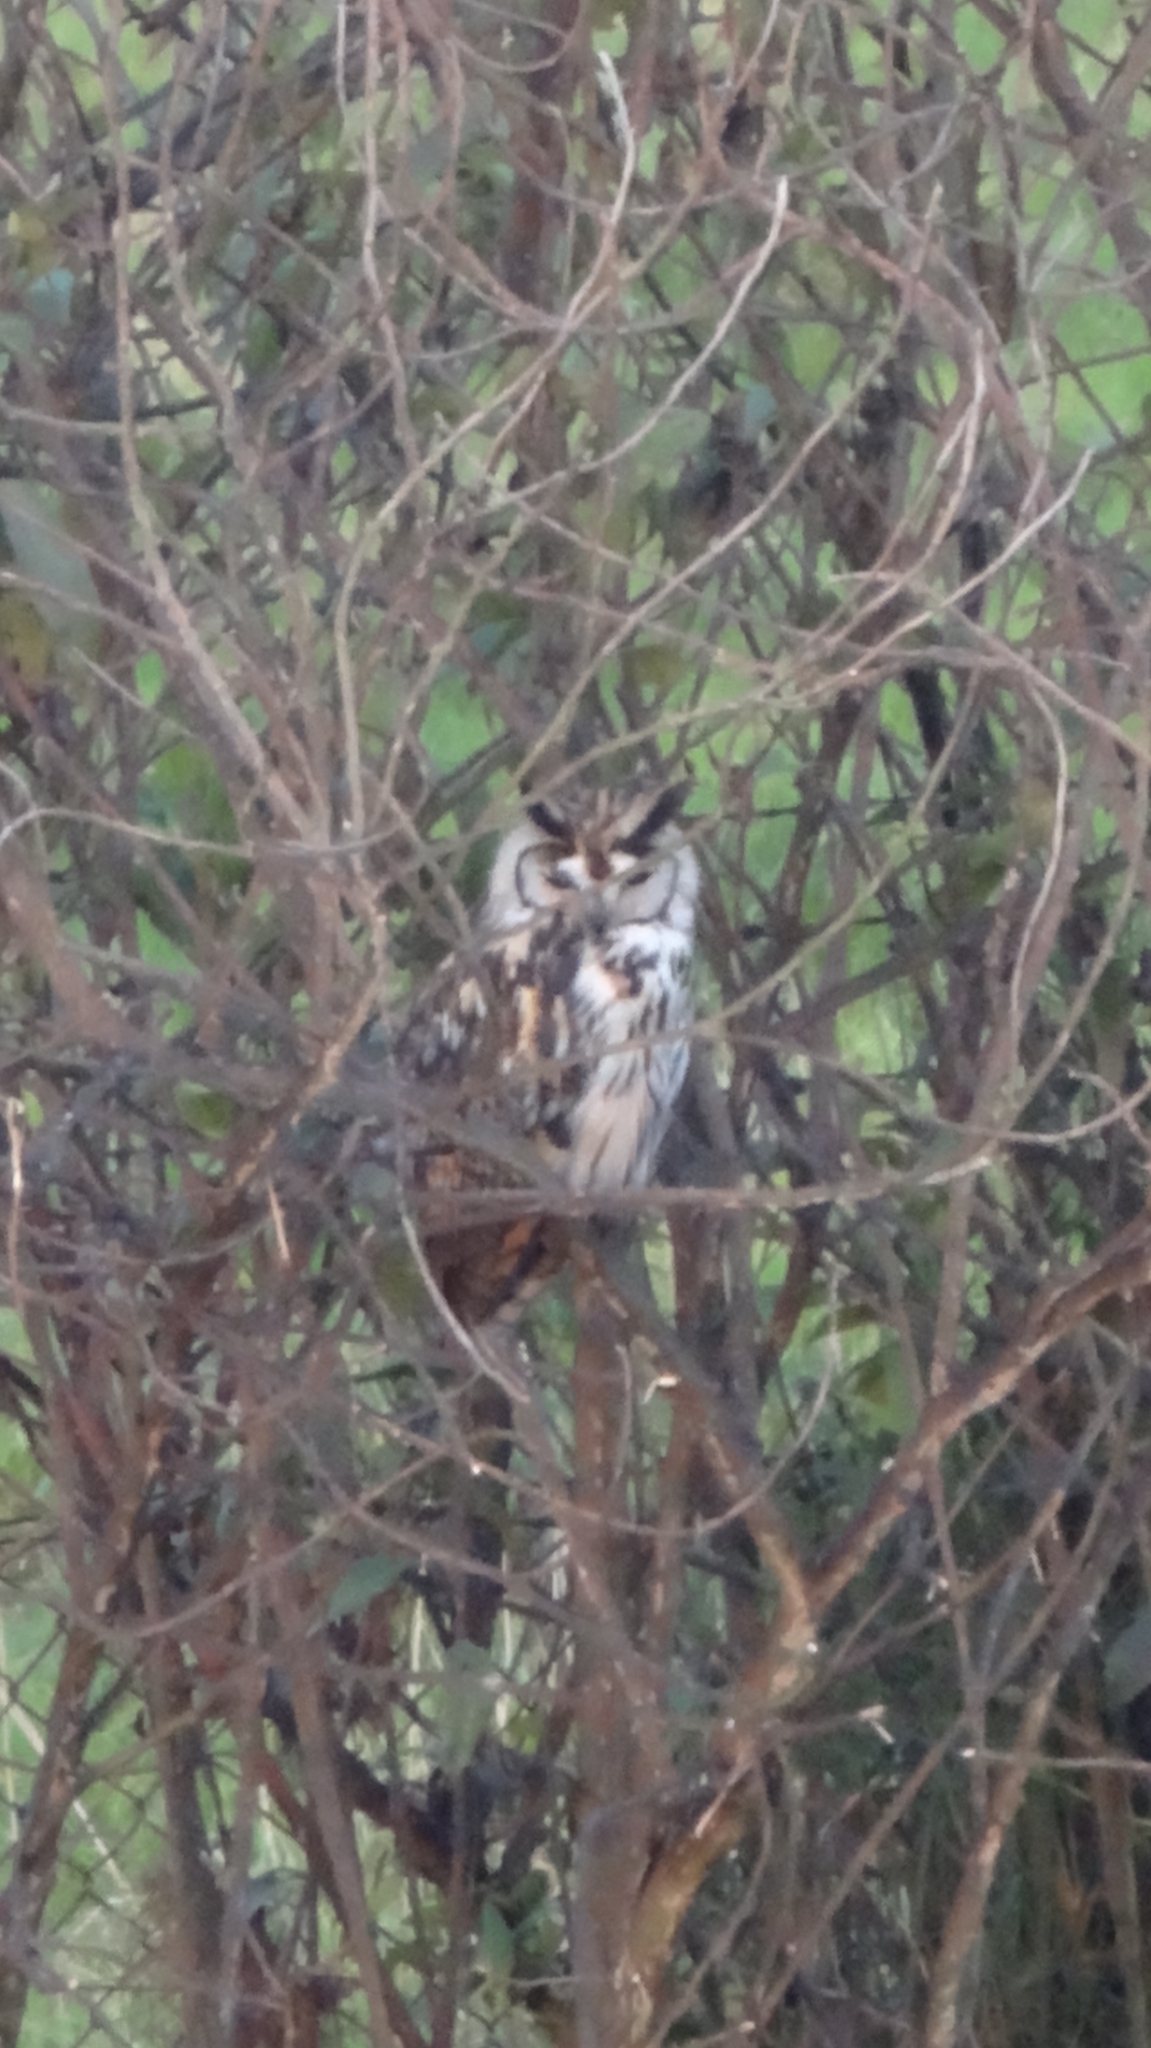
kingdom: Animalia
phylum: Chordata
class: Aves
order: Strigiformes
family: Strigidae
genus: Pseudoscops
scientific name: Pseudoscops clamator
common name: Striped owl
